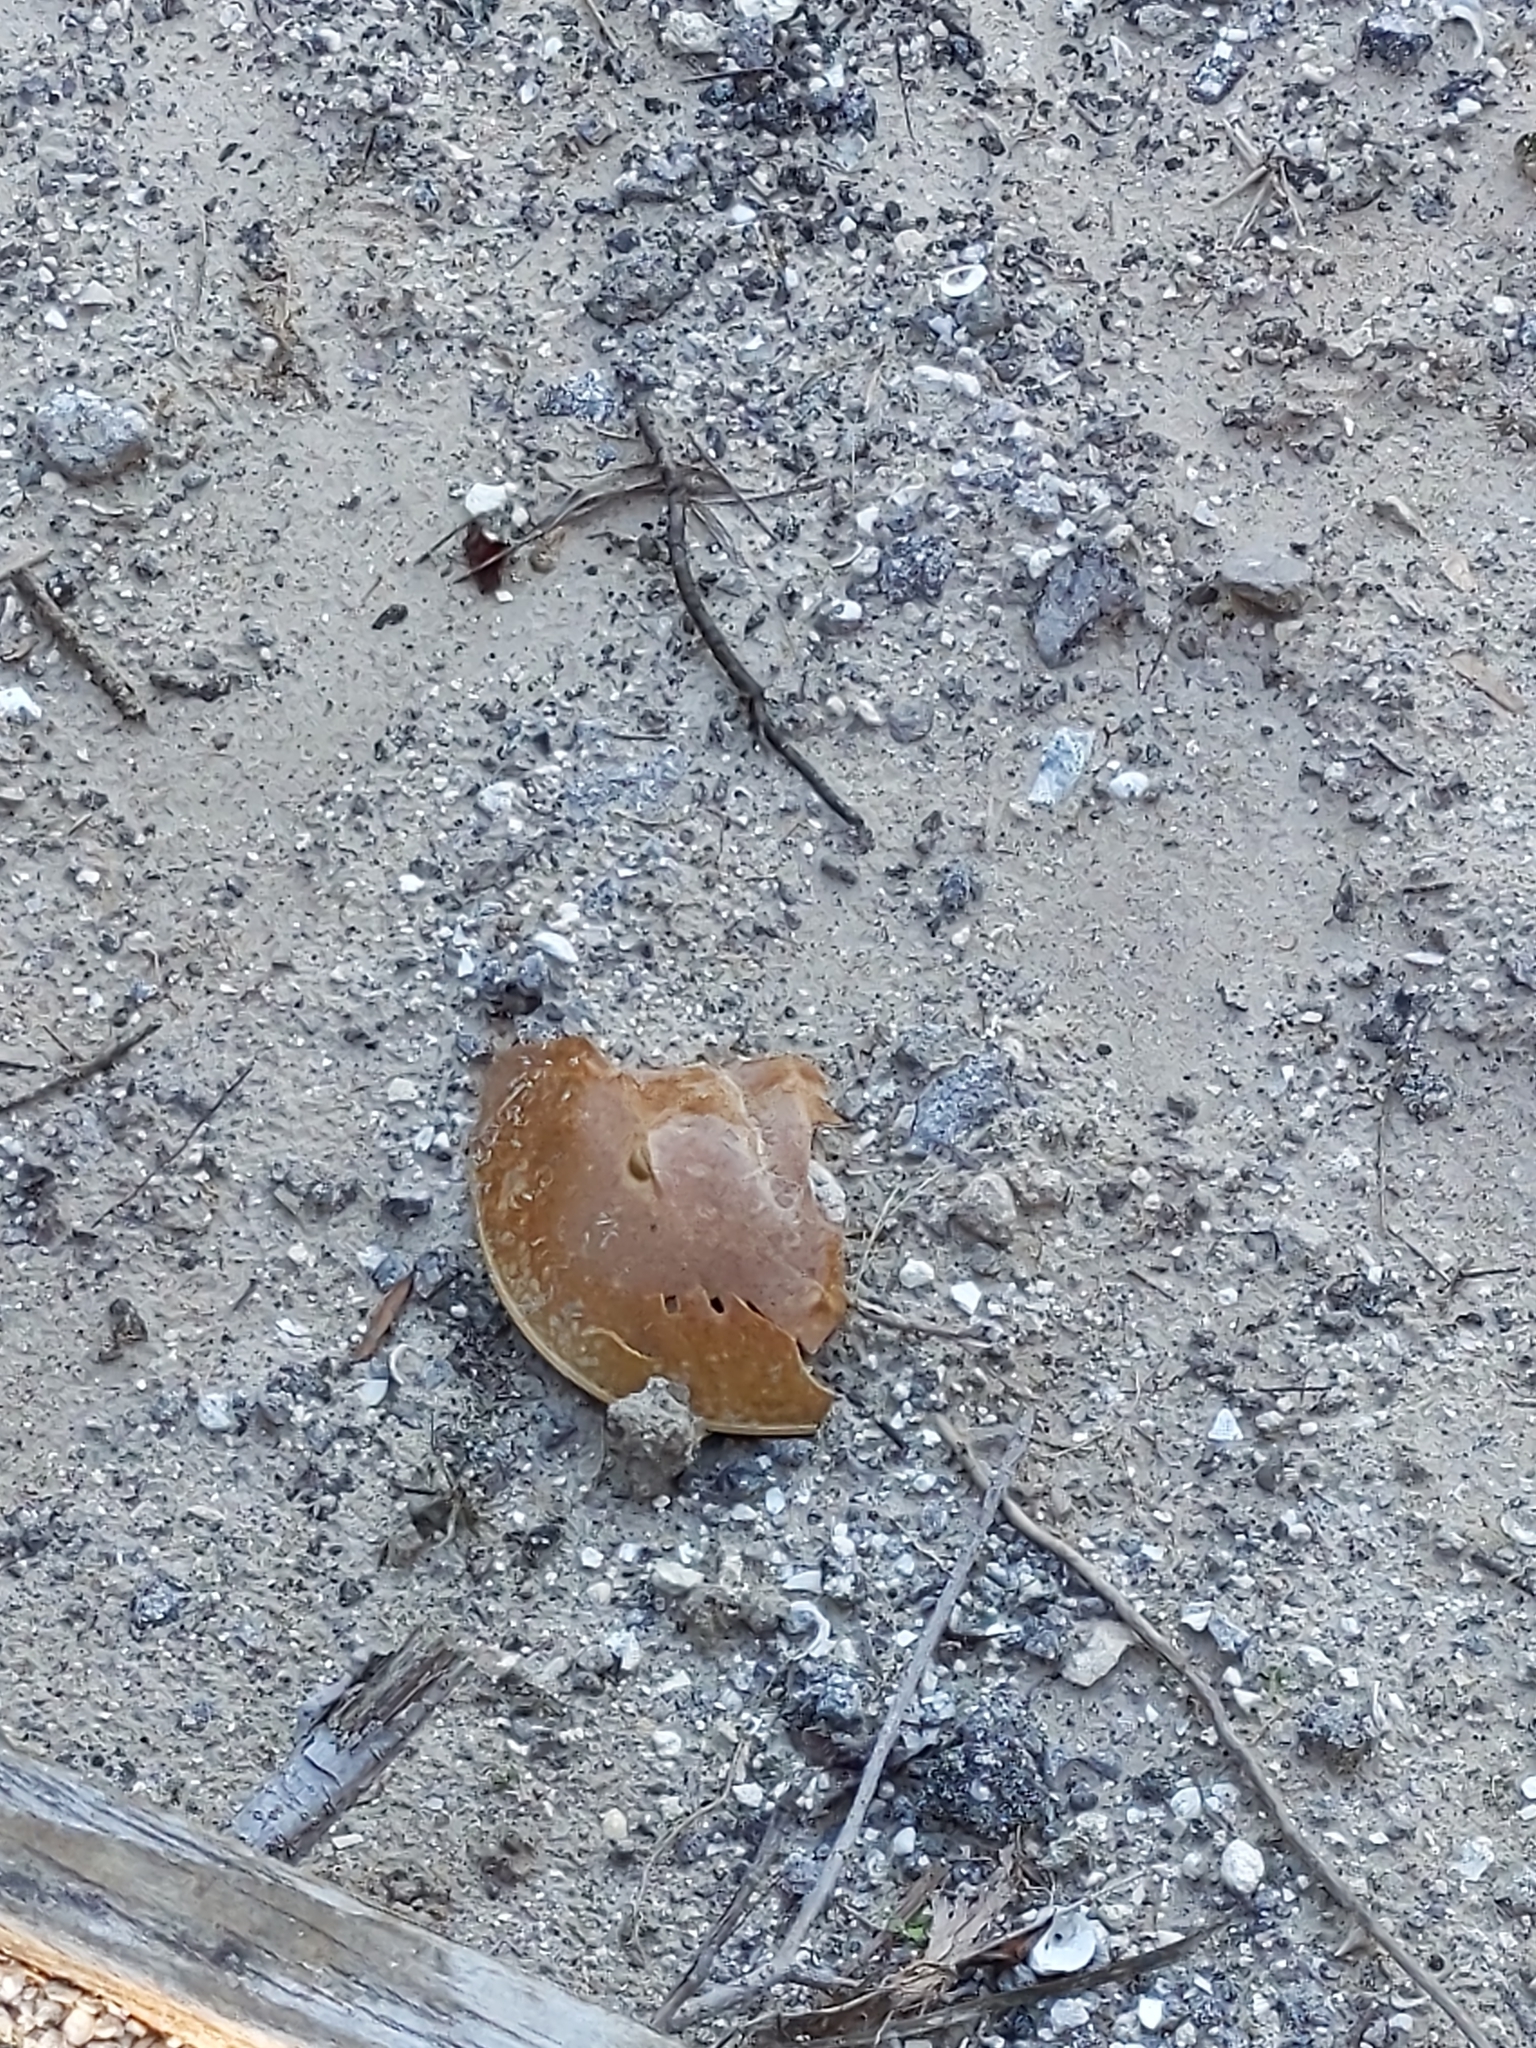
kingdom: Animalia
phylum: Arthropoda
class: Merostomata
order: Xiphosurida
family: Limulidae
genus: Limulus
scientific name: Limulus polyphemus
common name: Horseshoe crab
